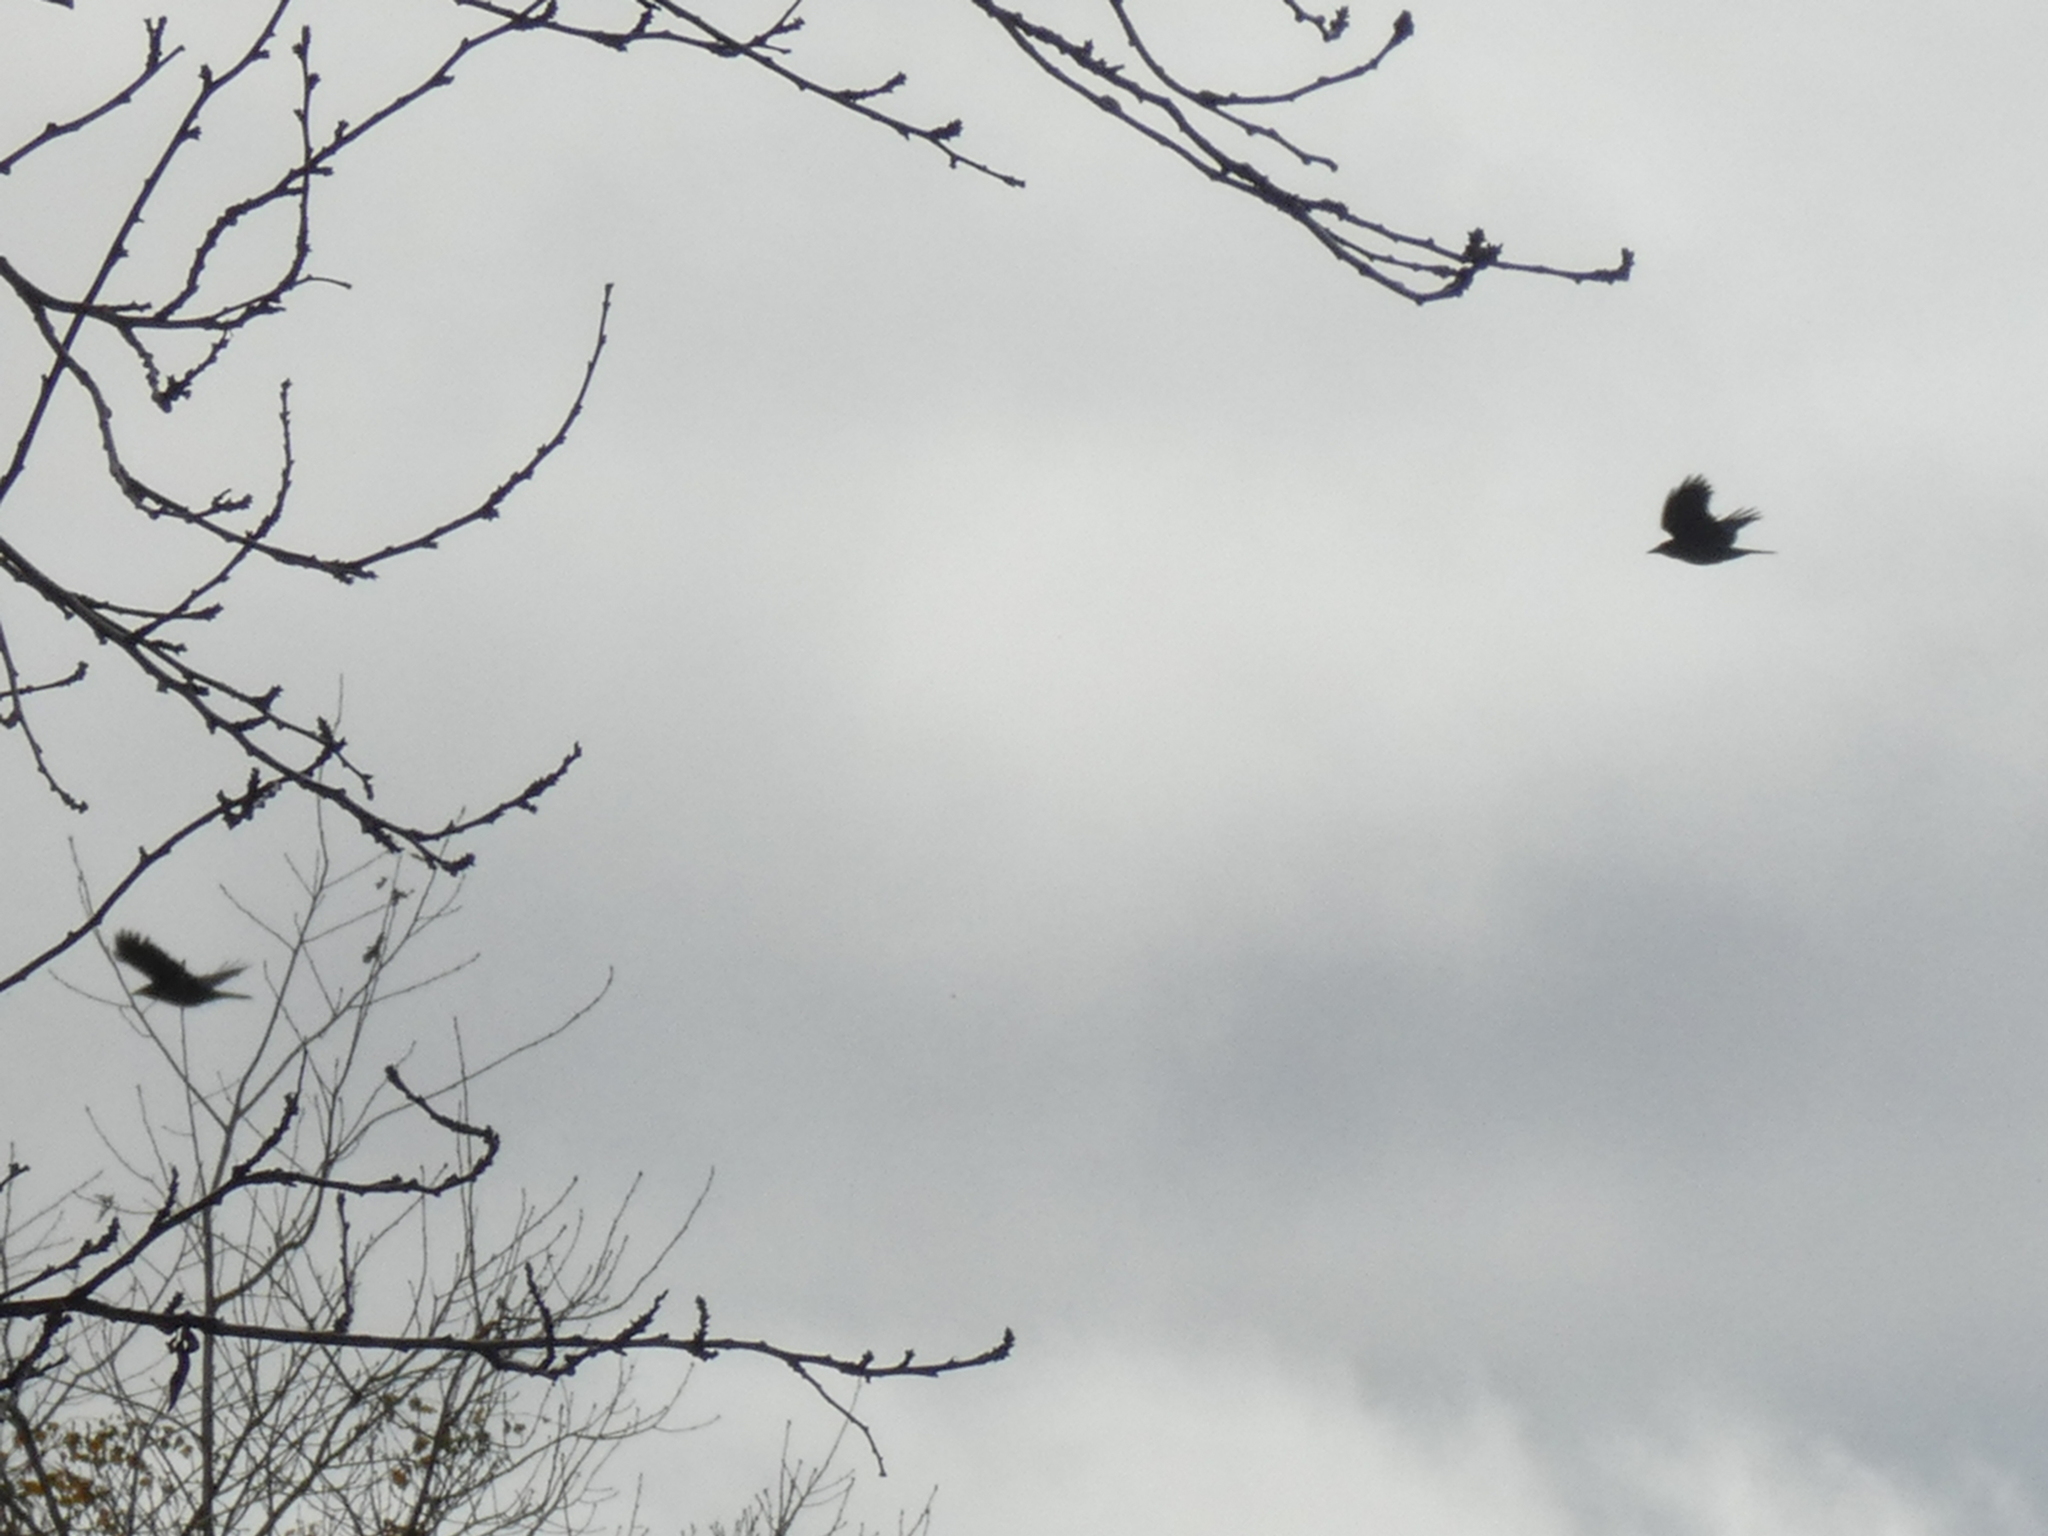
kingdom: Animalia
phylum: Chordata
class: Aves
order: Passeriformes
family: Corvidae
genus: Corvus
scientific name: Corvus brachyrhynchos
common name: American crow
